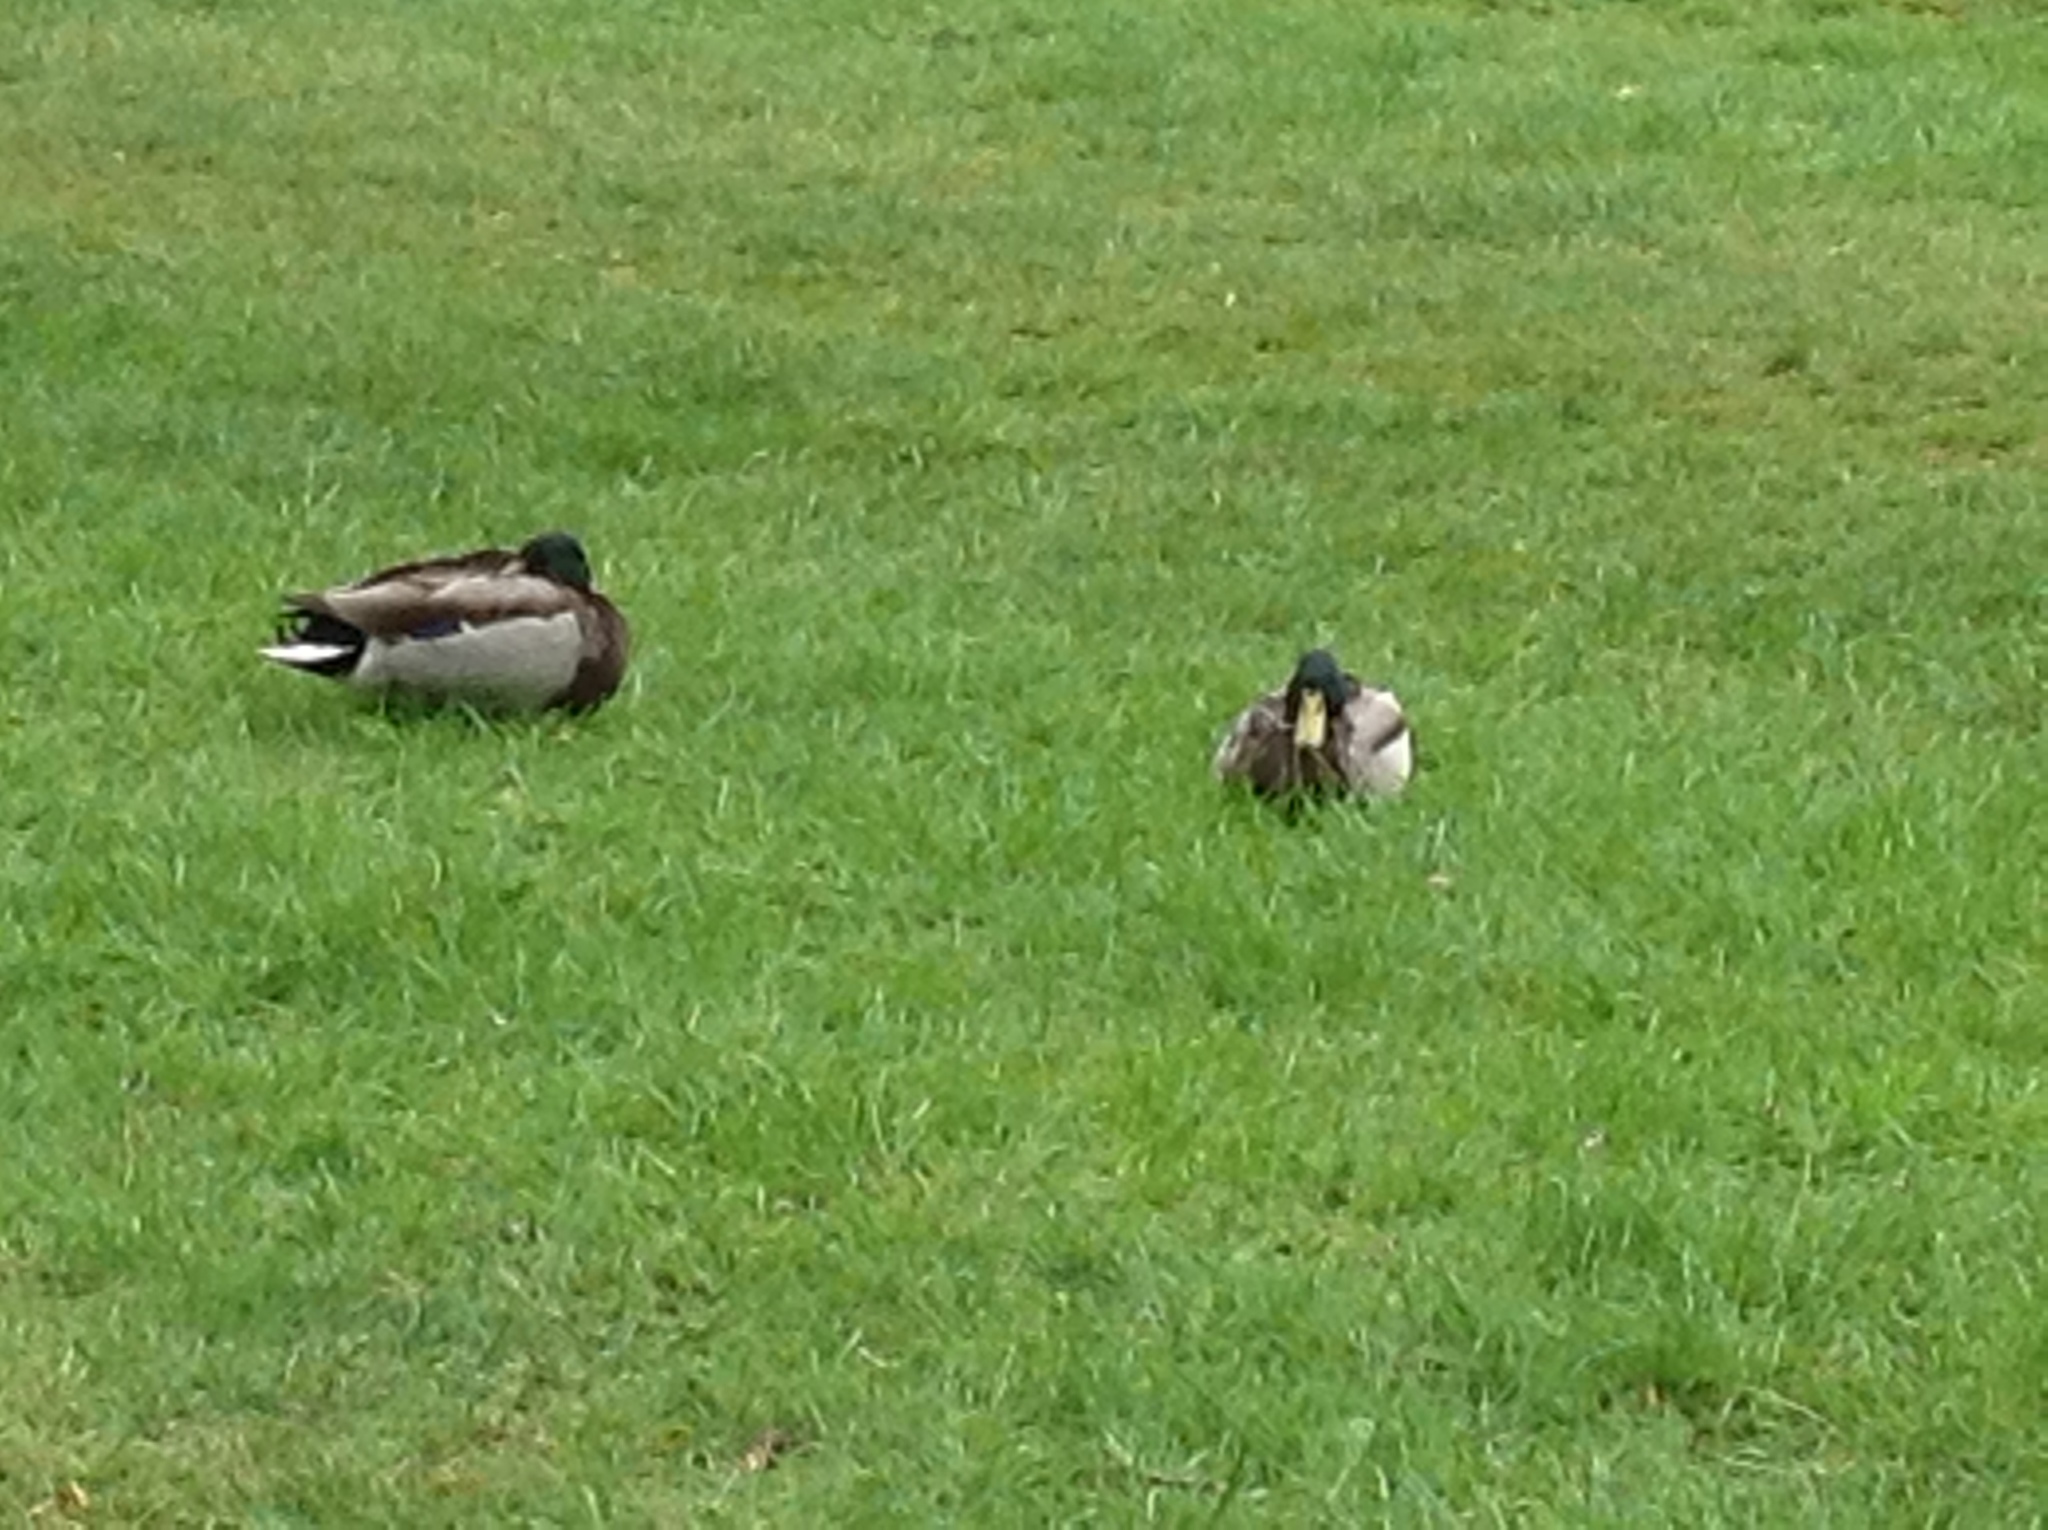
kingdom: Animalia
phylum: Chordata
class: Aves
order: Anseriformes
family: Anatidae
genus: Anas
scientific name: Anas platyrhynchos
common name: Mallard
